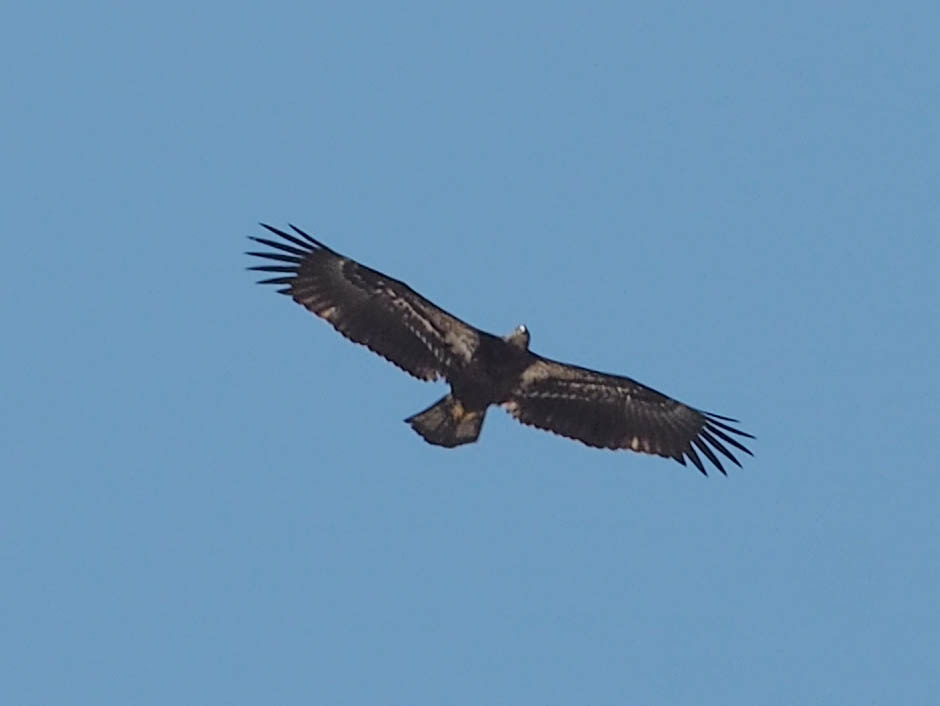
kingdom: Animalia
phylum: Chordata
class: Aves
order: Accipitriformes
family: Accipitridae
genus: Haliaeetus
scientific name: Haliaeetus leucocephalus
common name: Bald eagle
